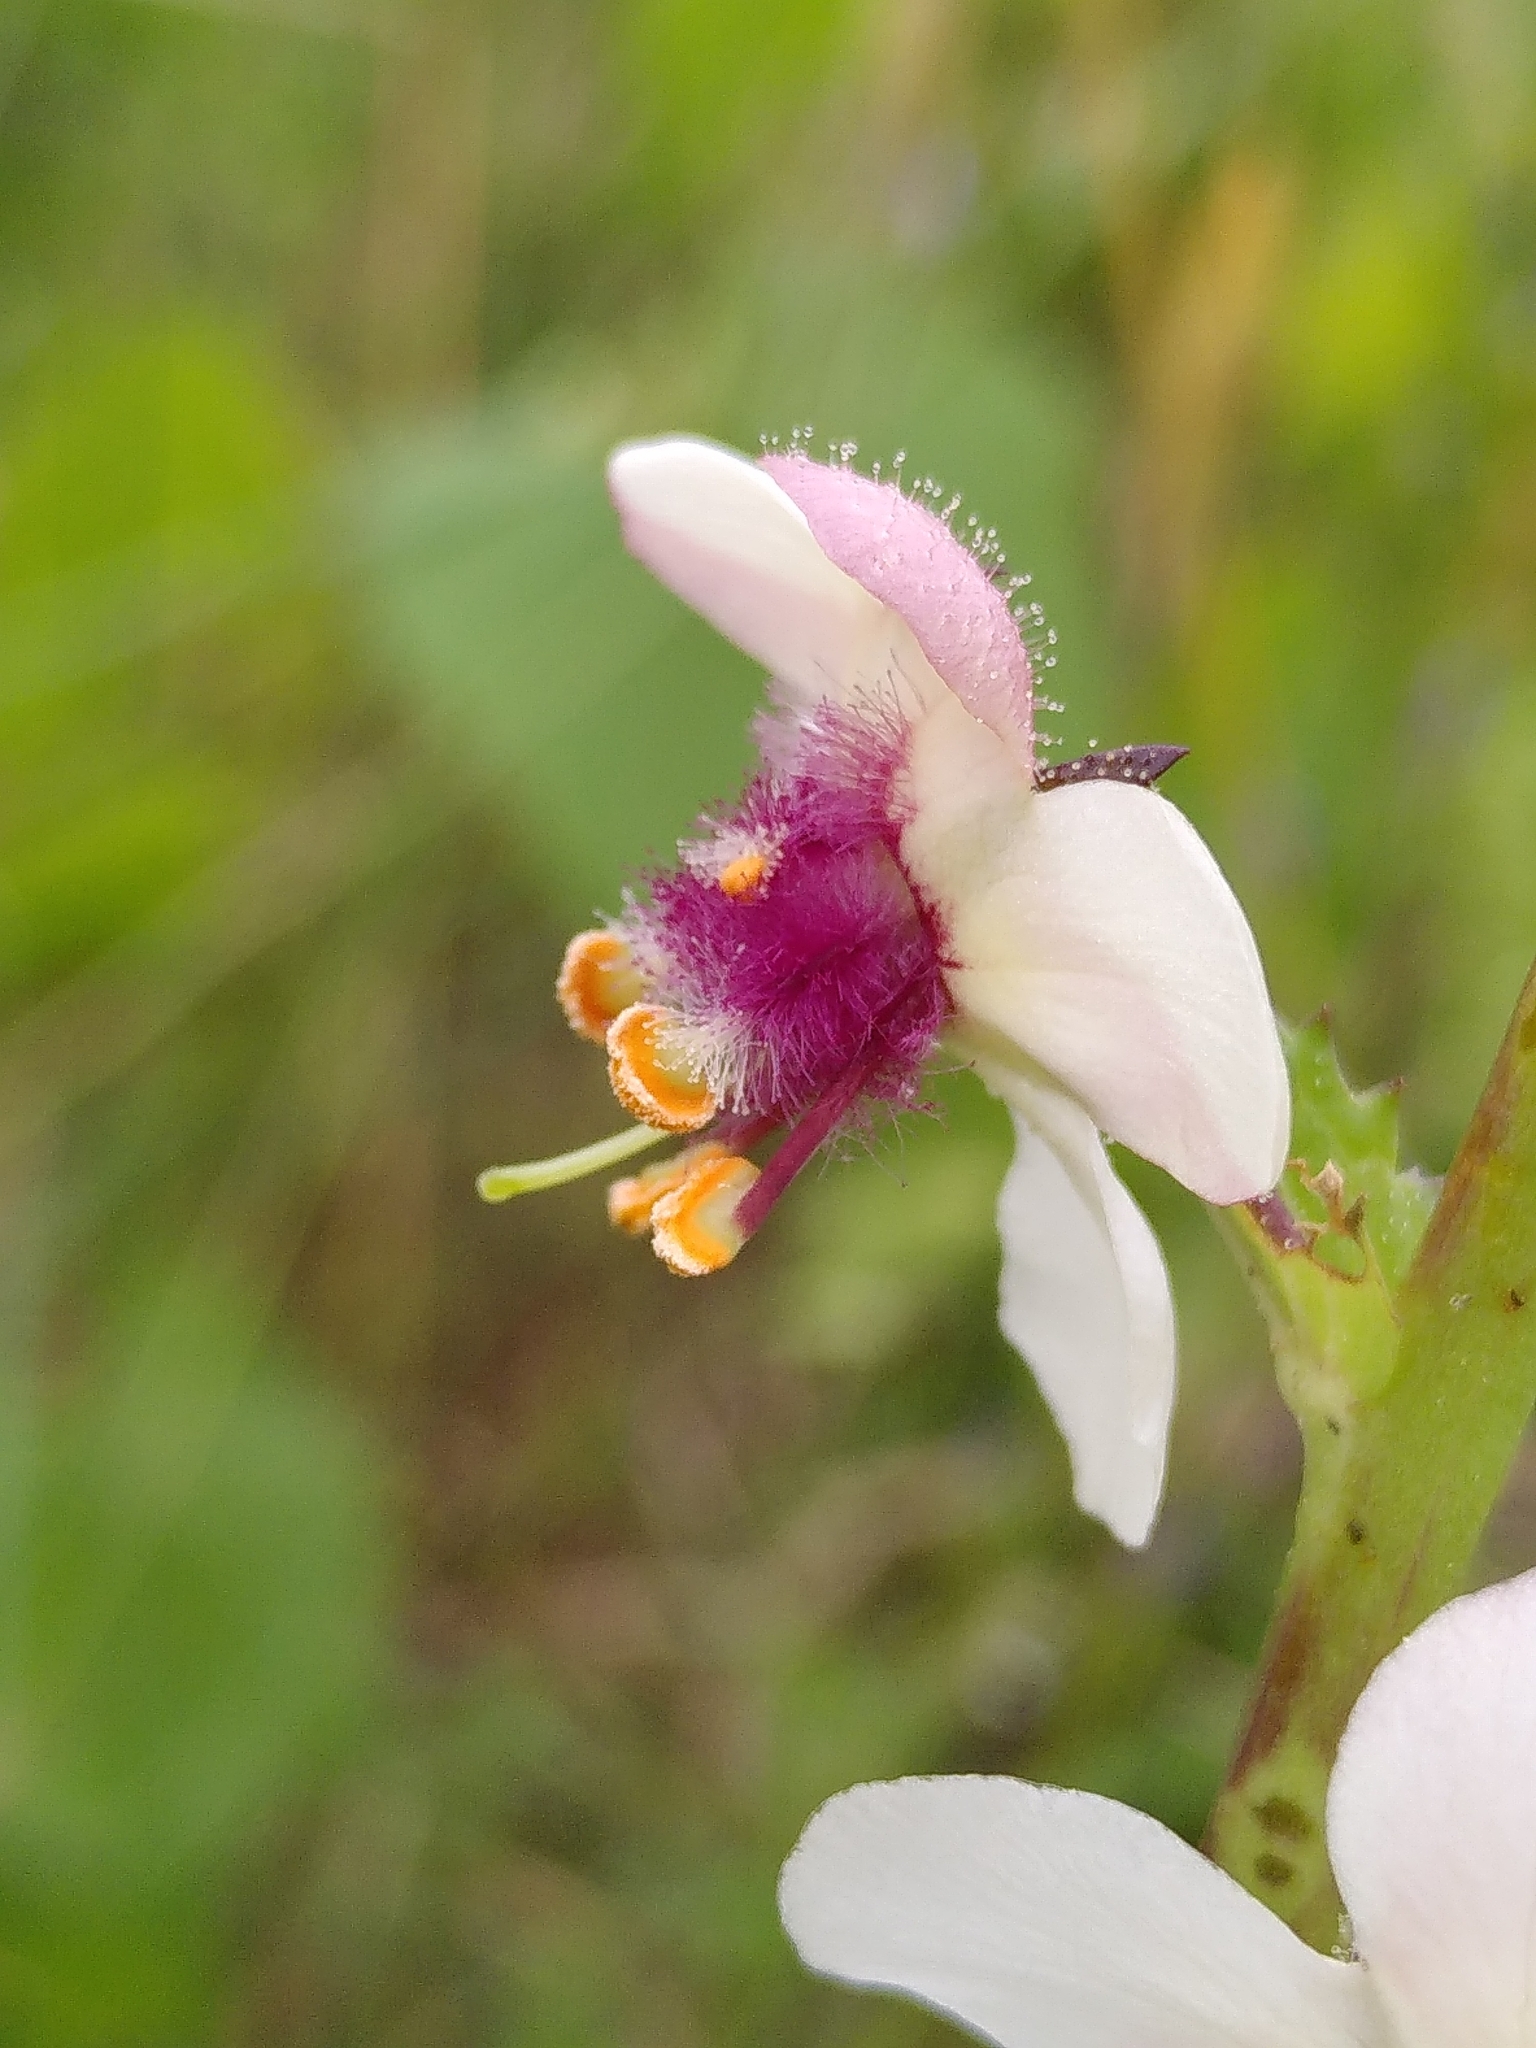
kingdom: Plantae
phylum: Tracheophyta
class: Magnoliopsida
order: Lamiales
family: Scrophulariaceae
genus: Verbascum
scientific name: Verbascum blattaria
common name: Moth mullein
